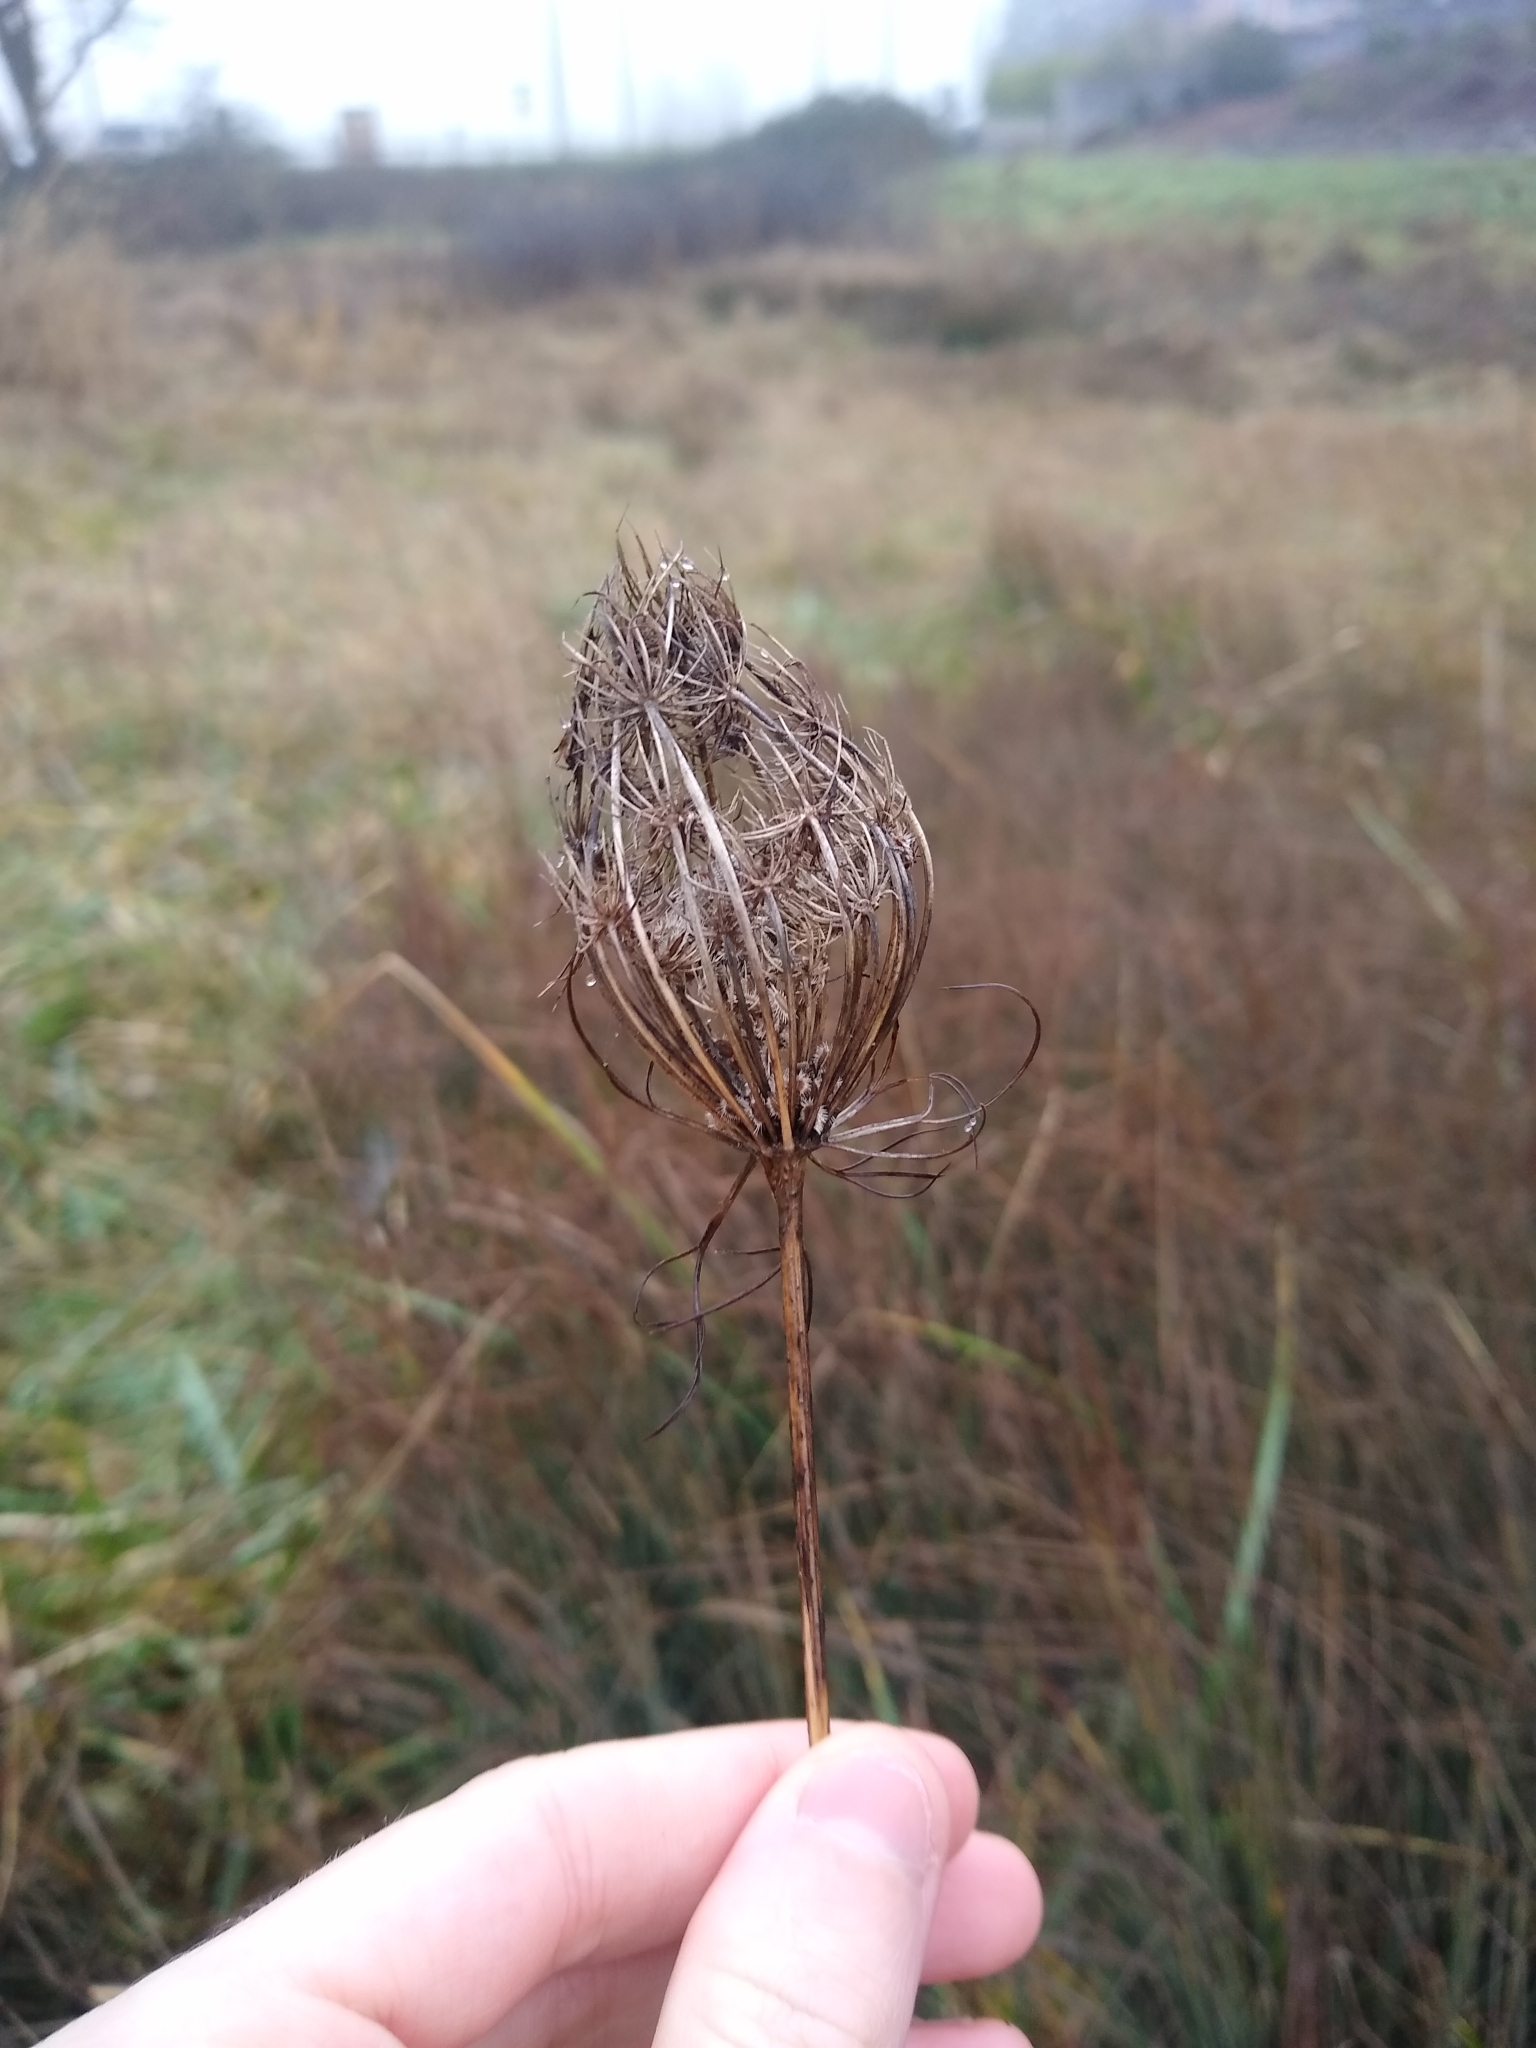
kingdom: Plantae
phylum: Tracheophyta
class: Magnoliopsida
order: Apiales
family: Apiaceae
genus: Daucus
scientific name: Daucus carota
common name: Wild carrot
